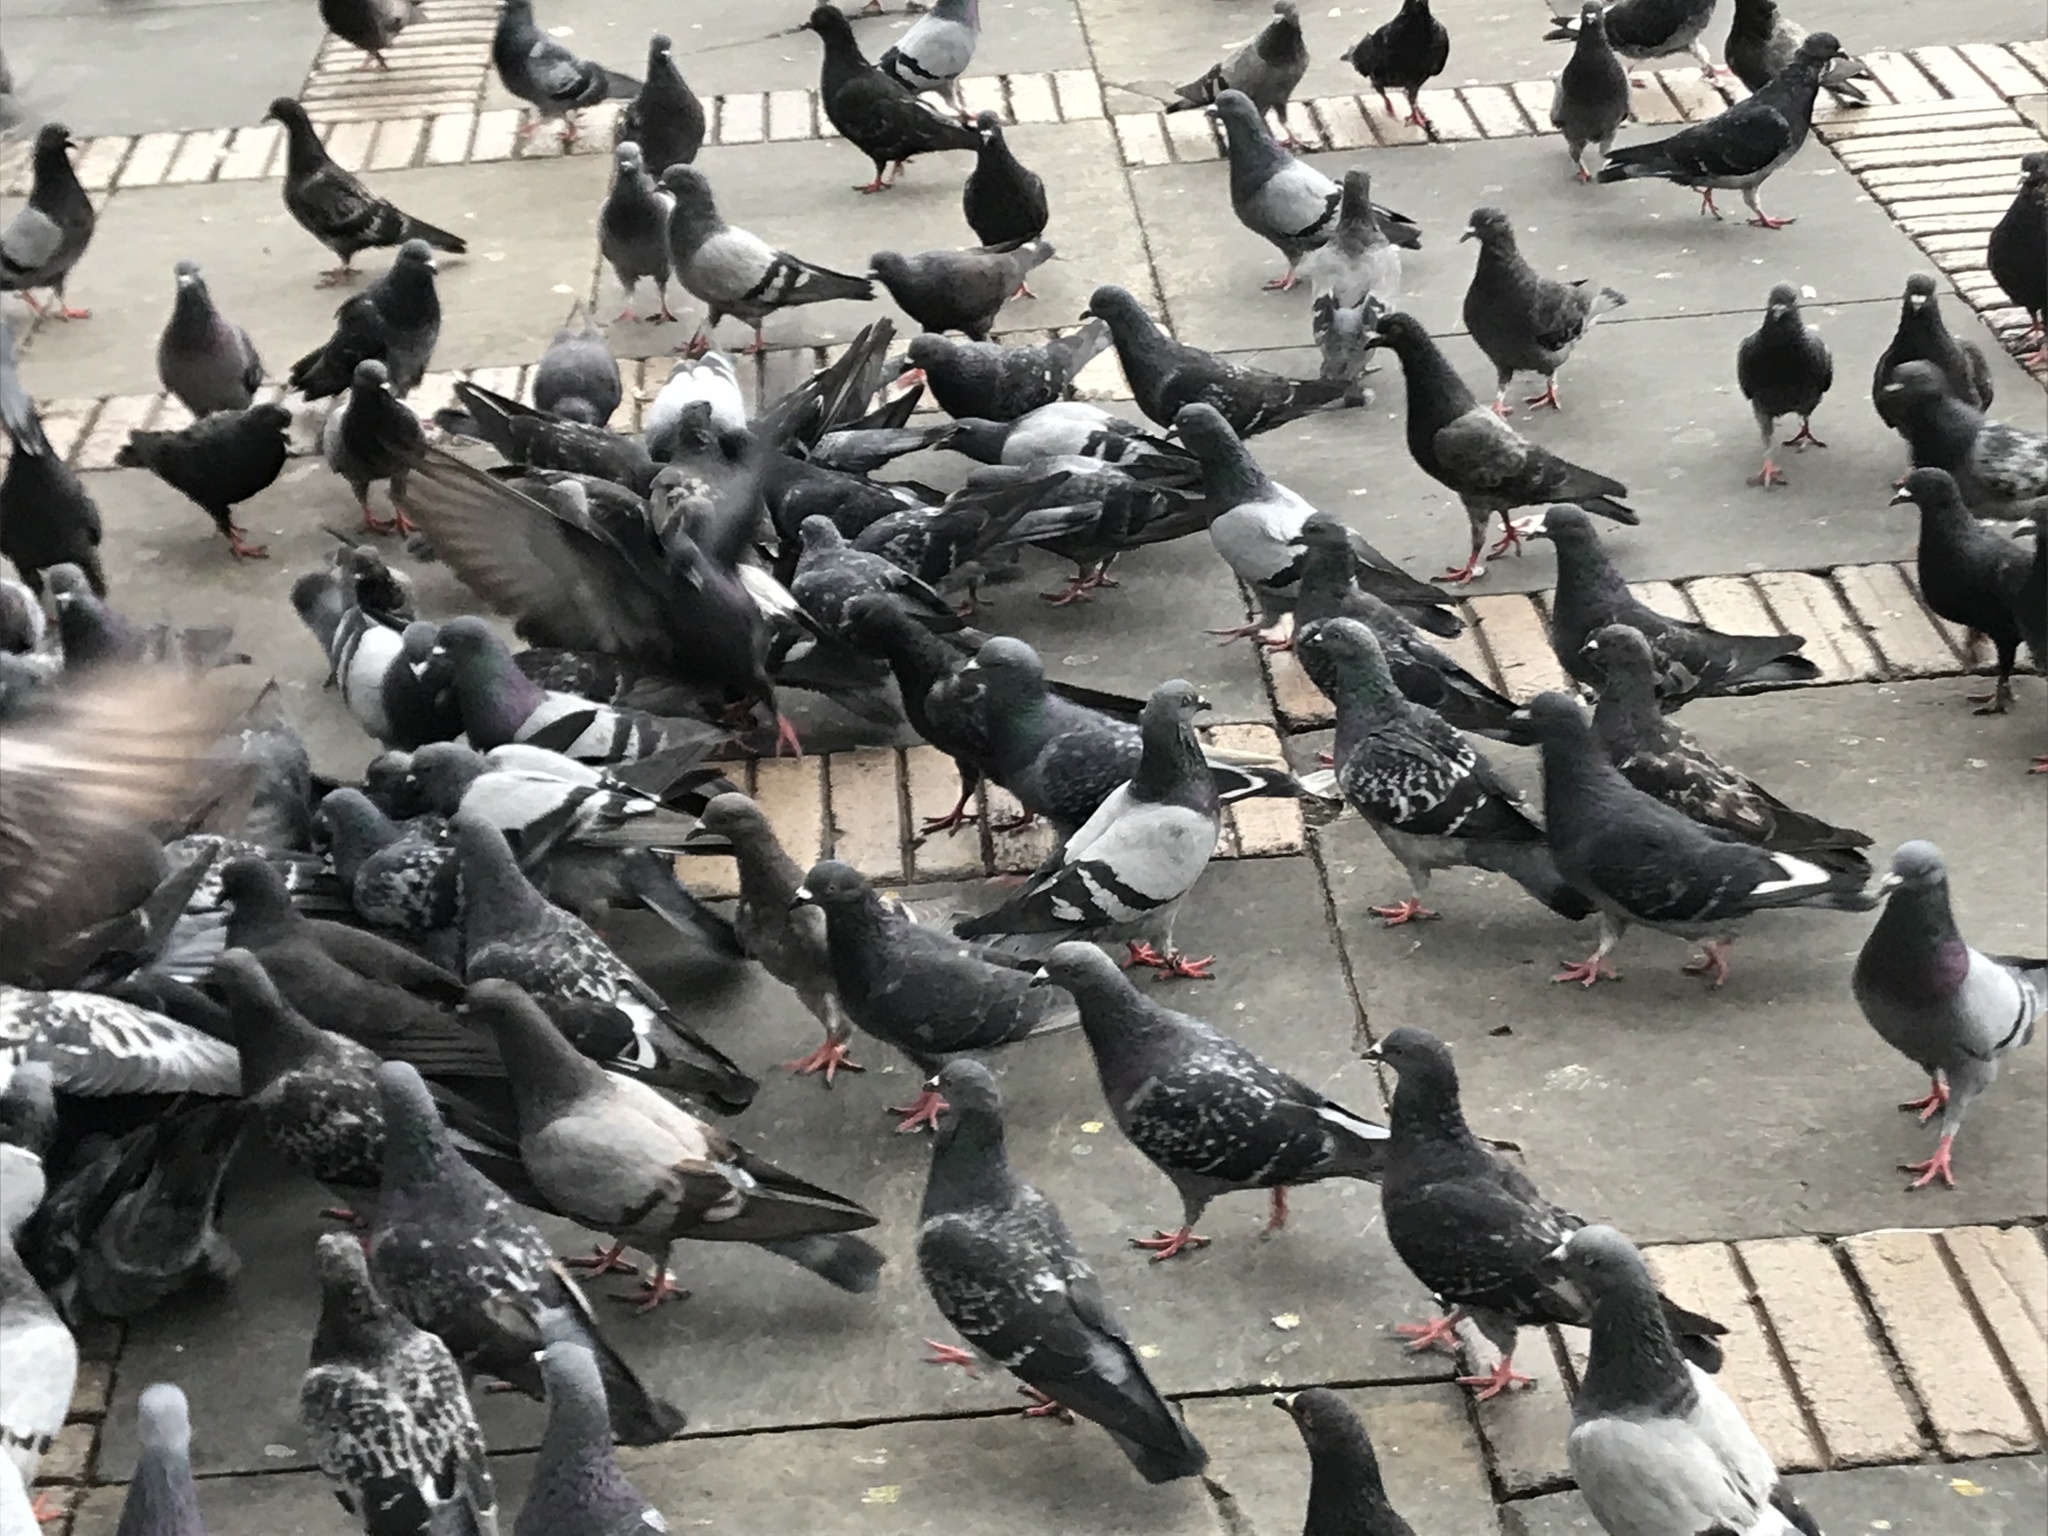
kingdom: Animalia
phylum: Chordata
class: Aves
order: Columbiformes
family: Columbidae
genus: Columba
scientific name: Columba livia
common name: Rock pigeon
